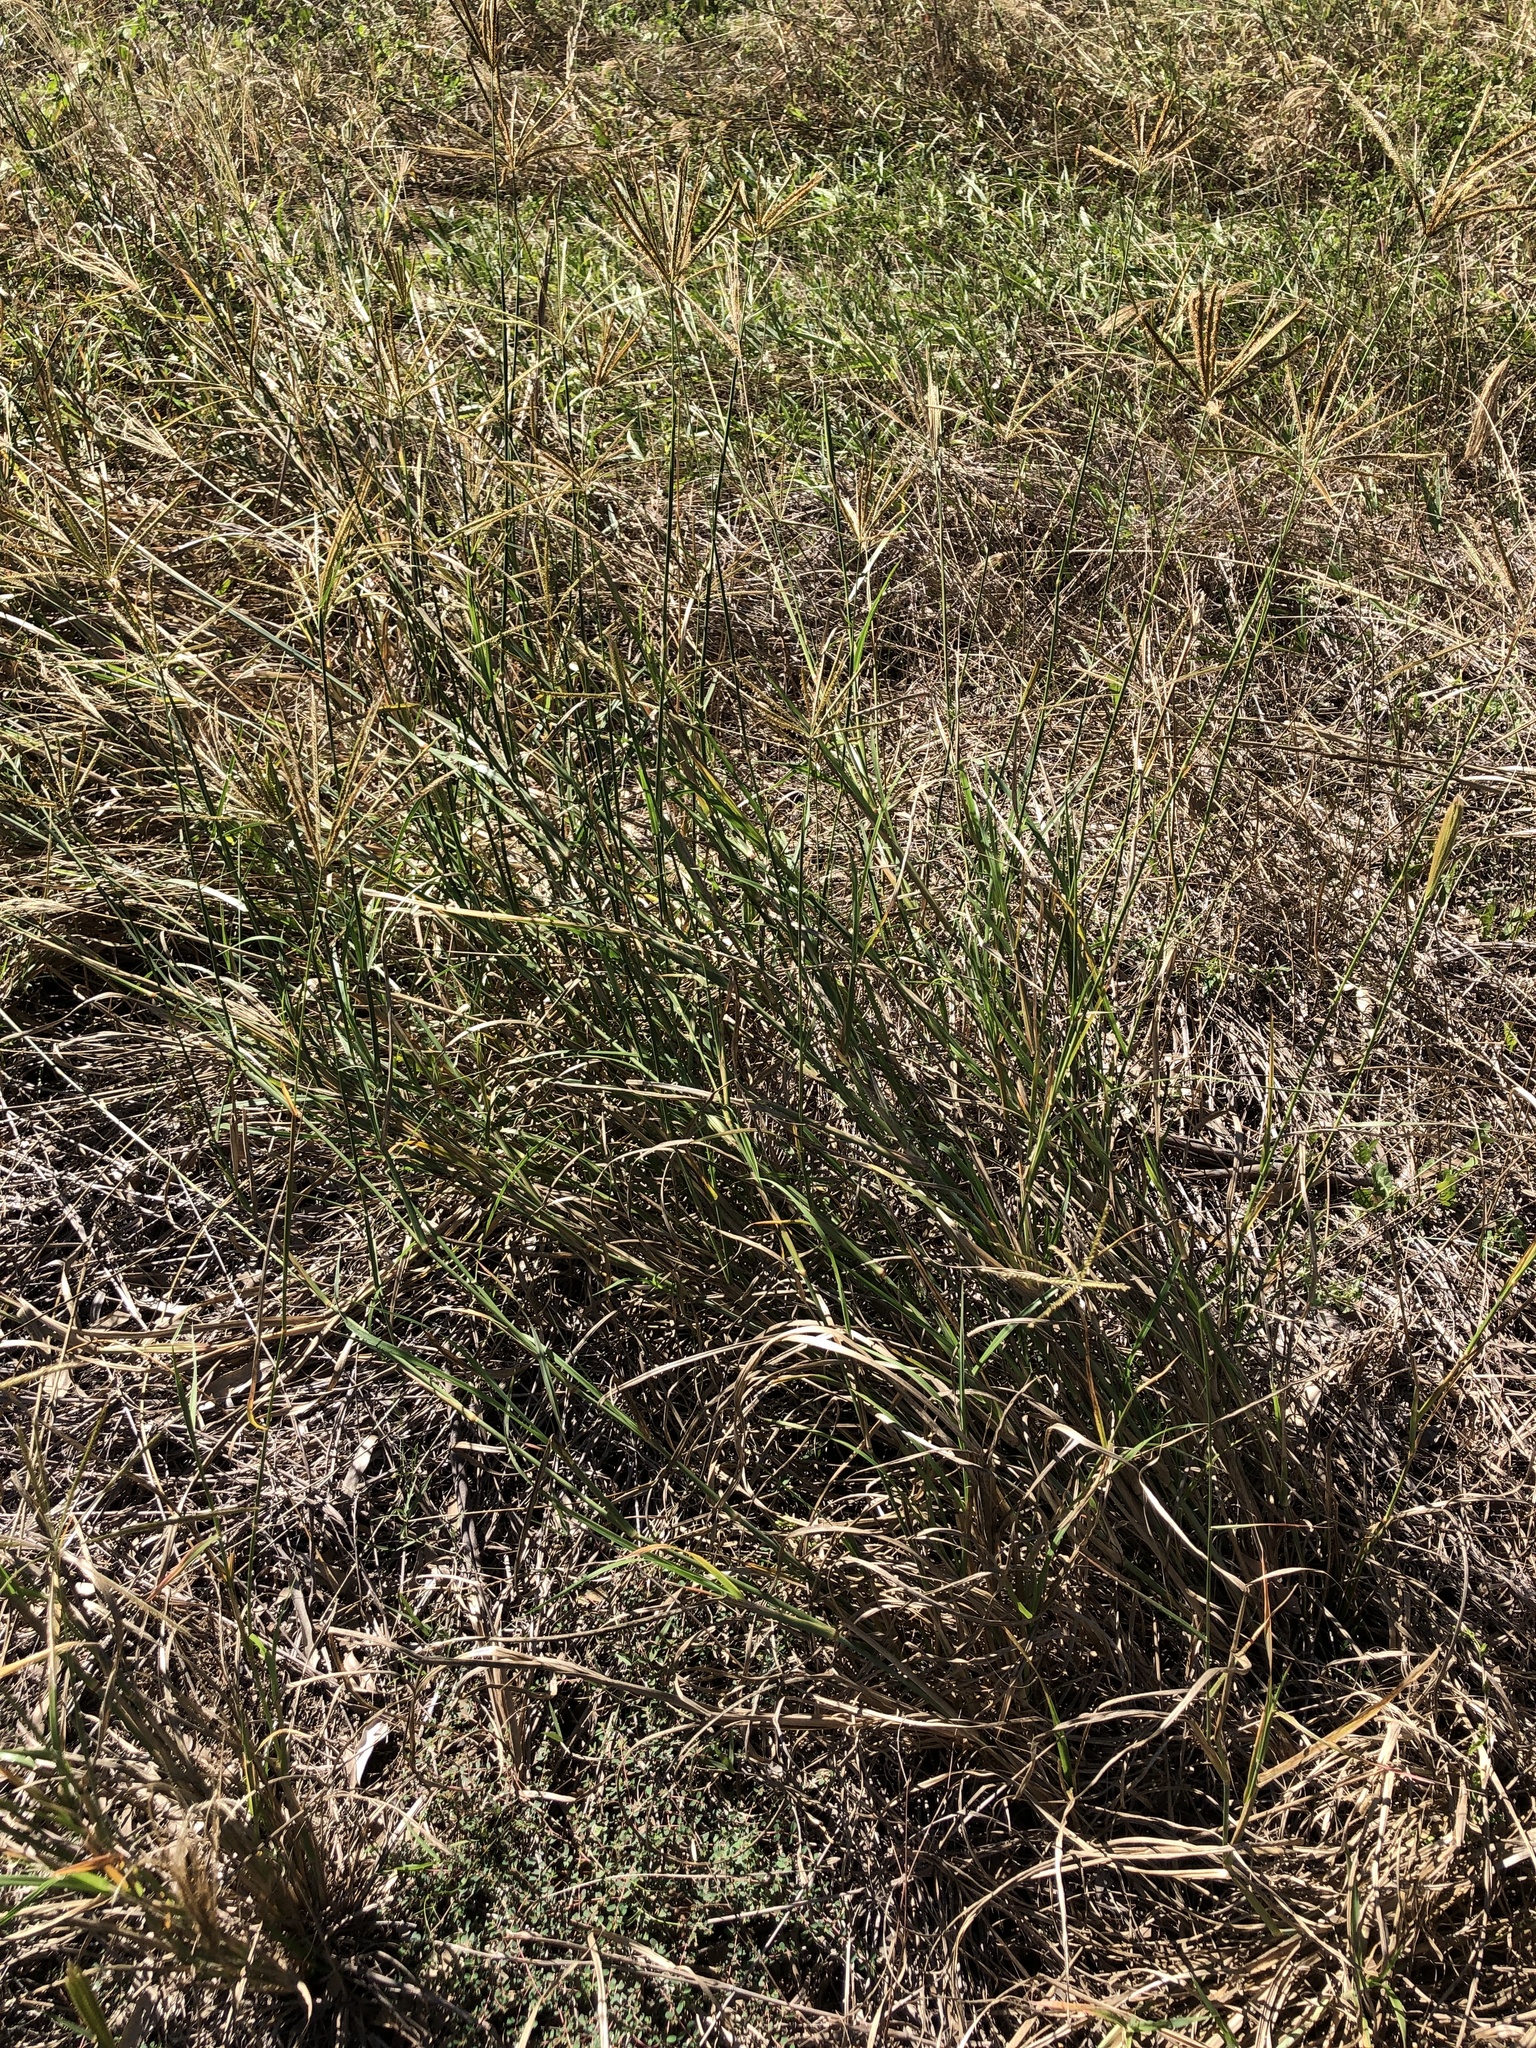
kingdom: Plantae
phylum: Tracheophyta
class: Liliopsida
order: Poales
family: Poaceae
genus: Chloris
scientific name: Chloris gayana
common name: Rhodes grass
